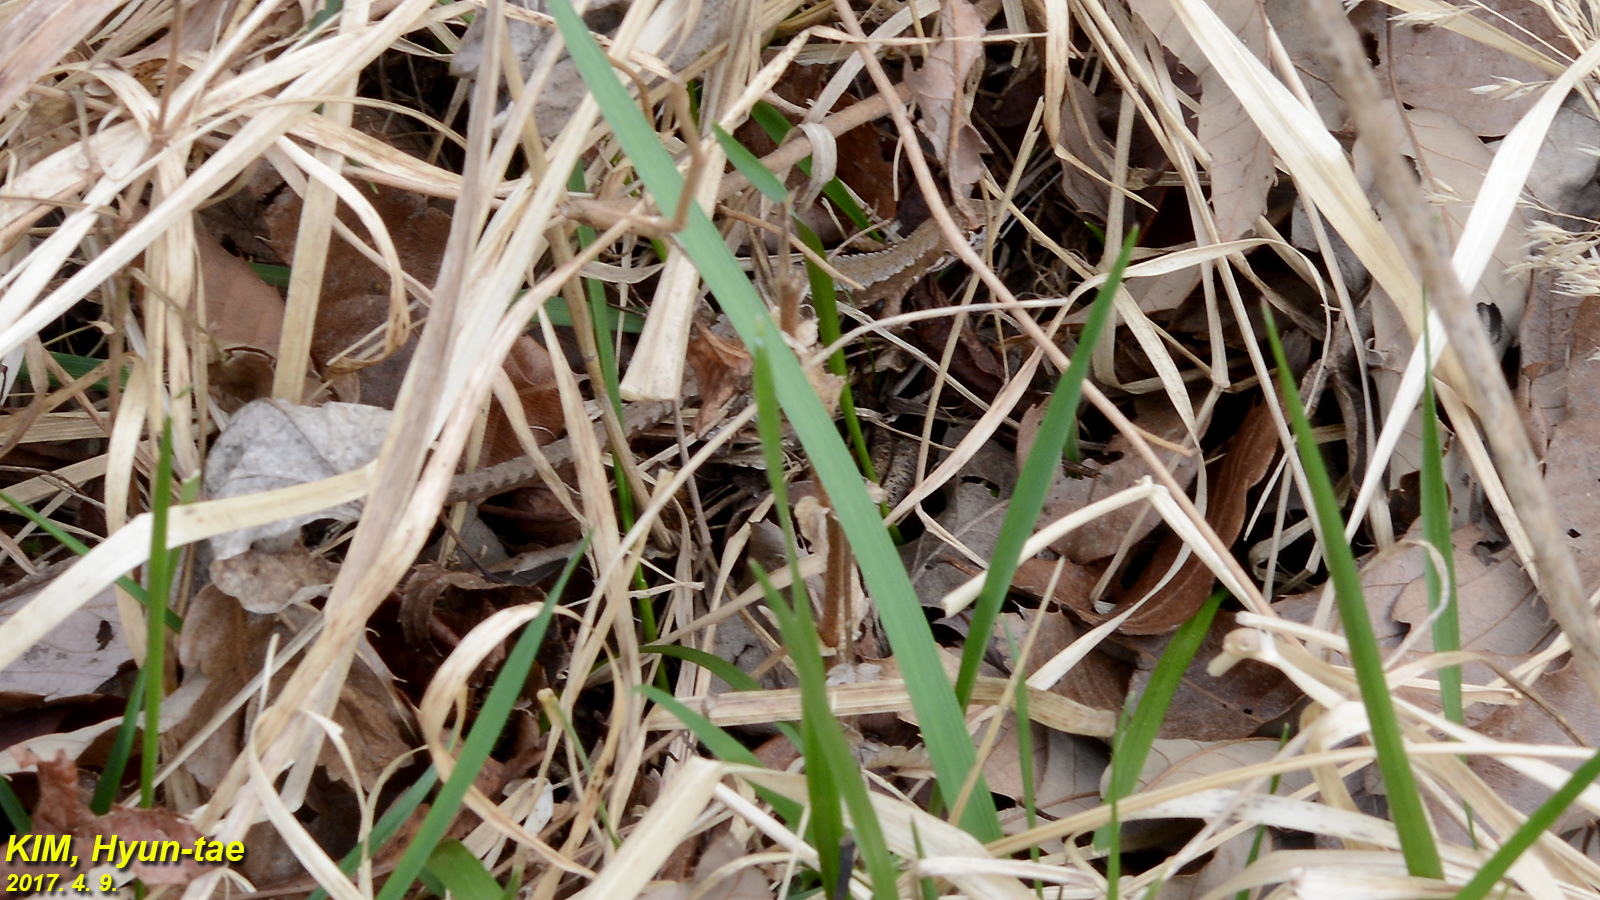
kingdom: Animalia
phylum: Chordata
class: Squamata
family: Lacertidae
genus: Takydromus
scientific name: Takydromus amurensis
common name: Amur grass lizard
